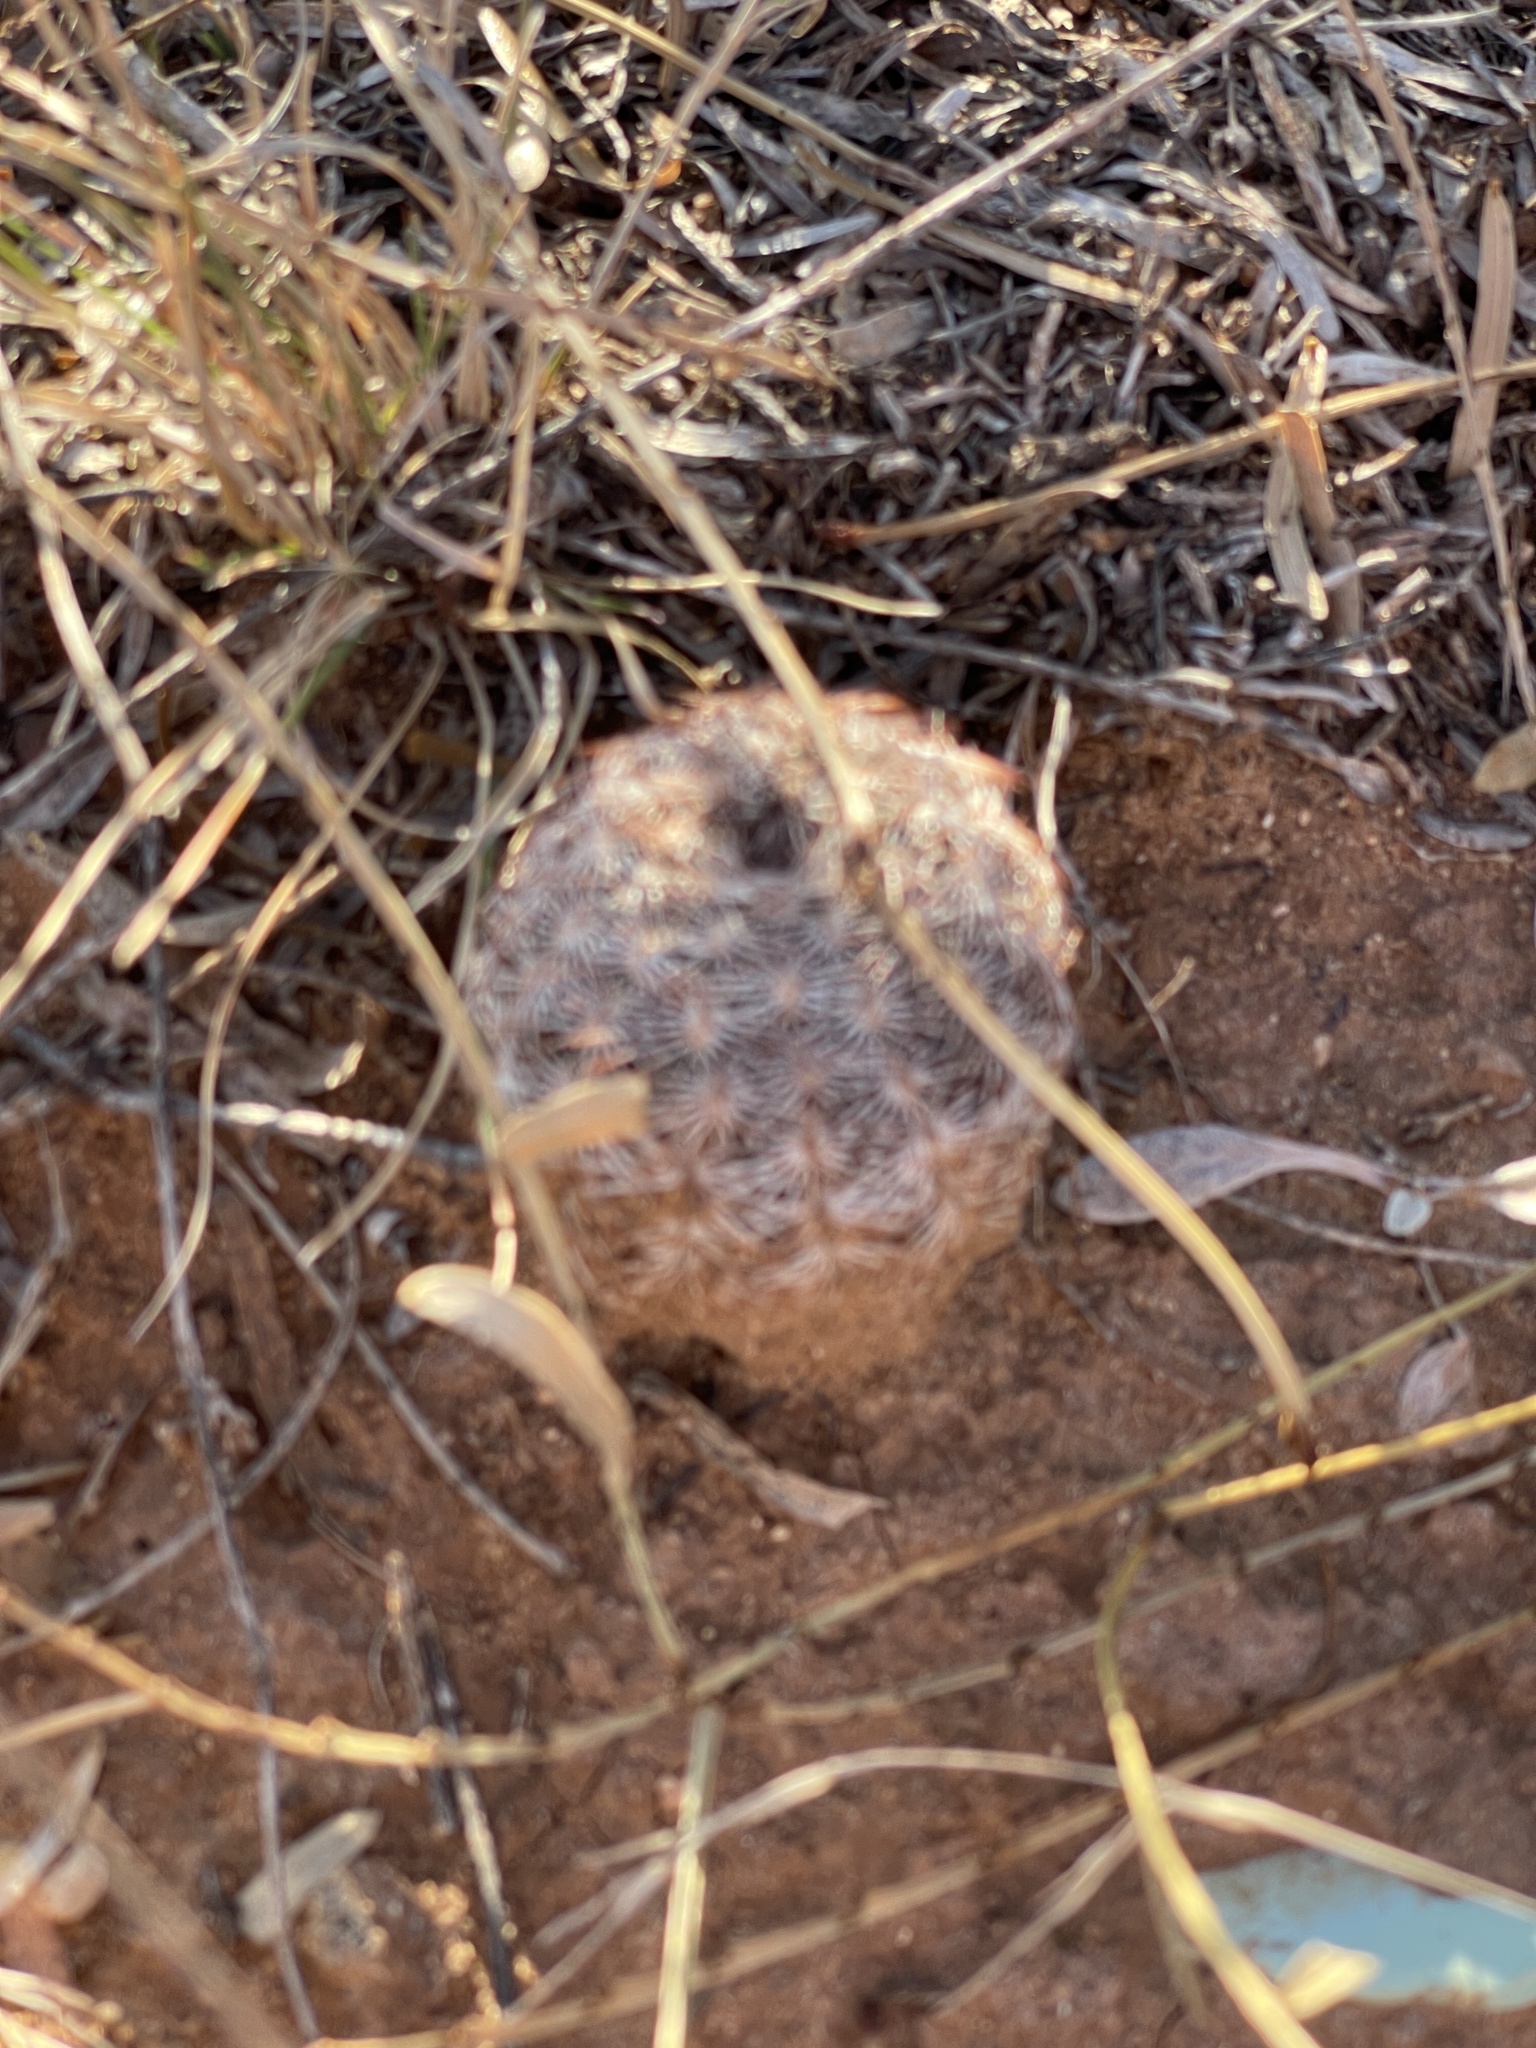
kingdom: Plantae
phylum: Tracheophyta
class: Magnoliopsida
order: Caryophyllales
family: Cactaceae
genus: Echinocereus
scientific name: Echinocereus reichenbachii
